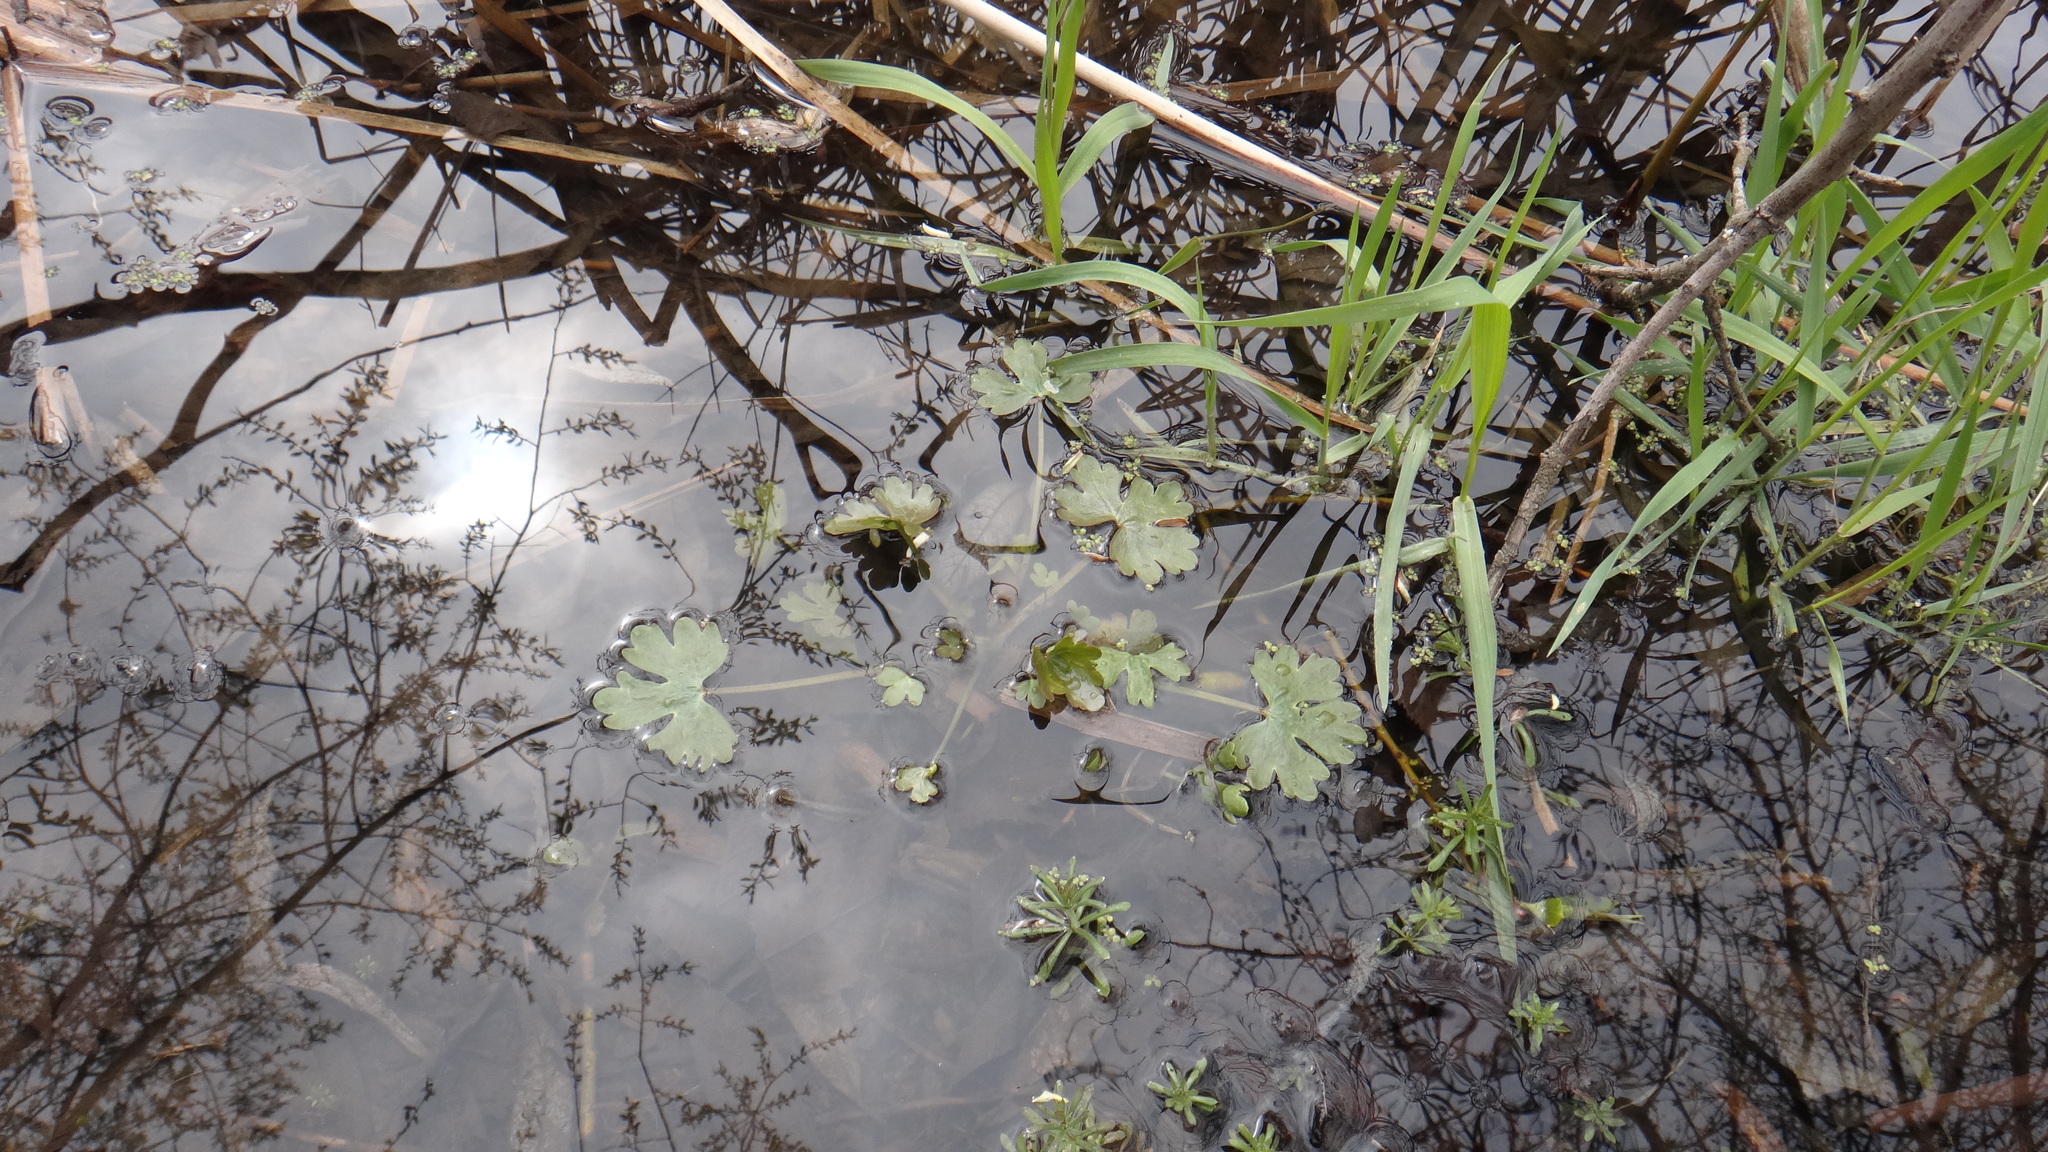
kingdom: Plantae
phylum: Tracheophyta
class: Magnoliopsida
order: Ranunculales
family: Ranunculaceae
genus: Ranunculus
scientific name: Ranunculus sceleratus
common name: Celery-leaved buttercup
